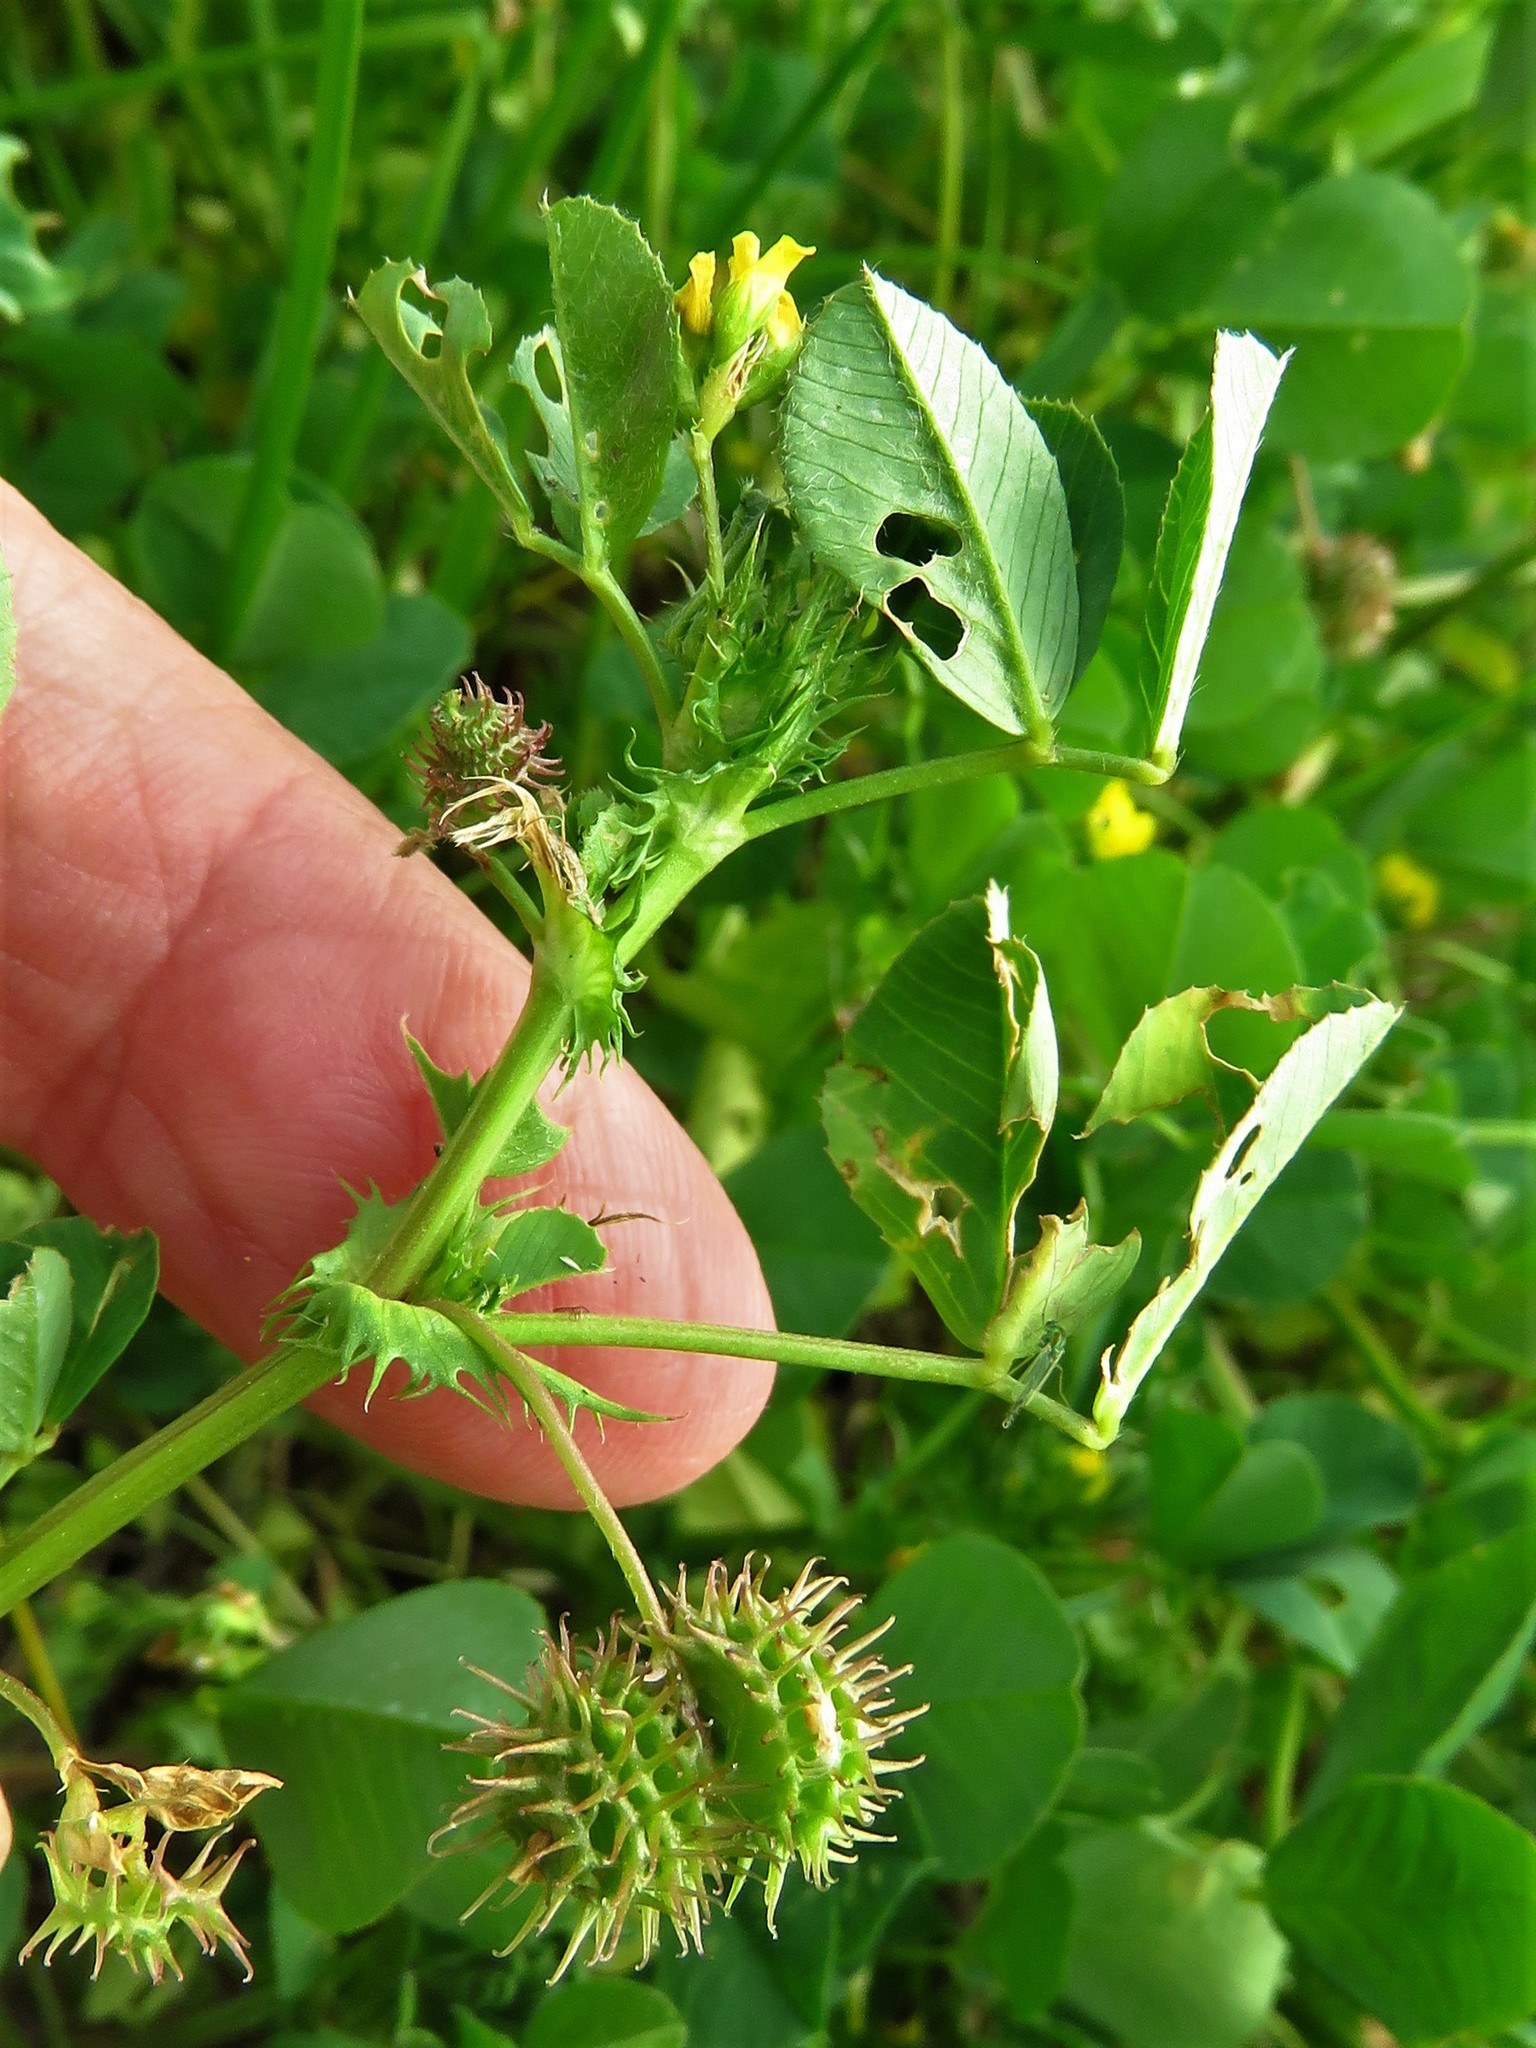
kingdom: Plantae
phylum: Tracheophyta
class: Magnoliopsida
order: Fabales
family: Fabaceae
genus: Medicago
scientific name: Medicago polymorpha
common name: Burclover
